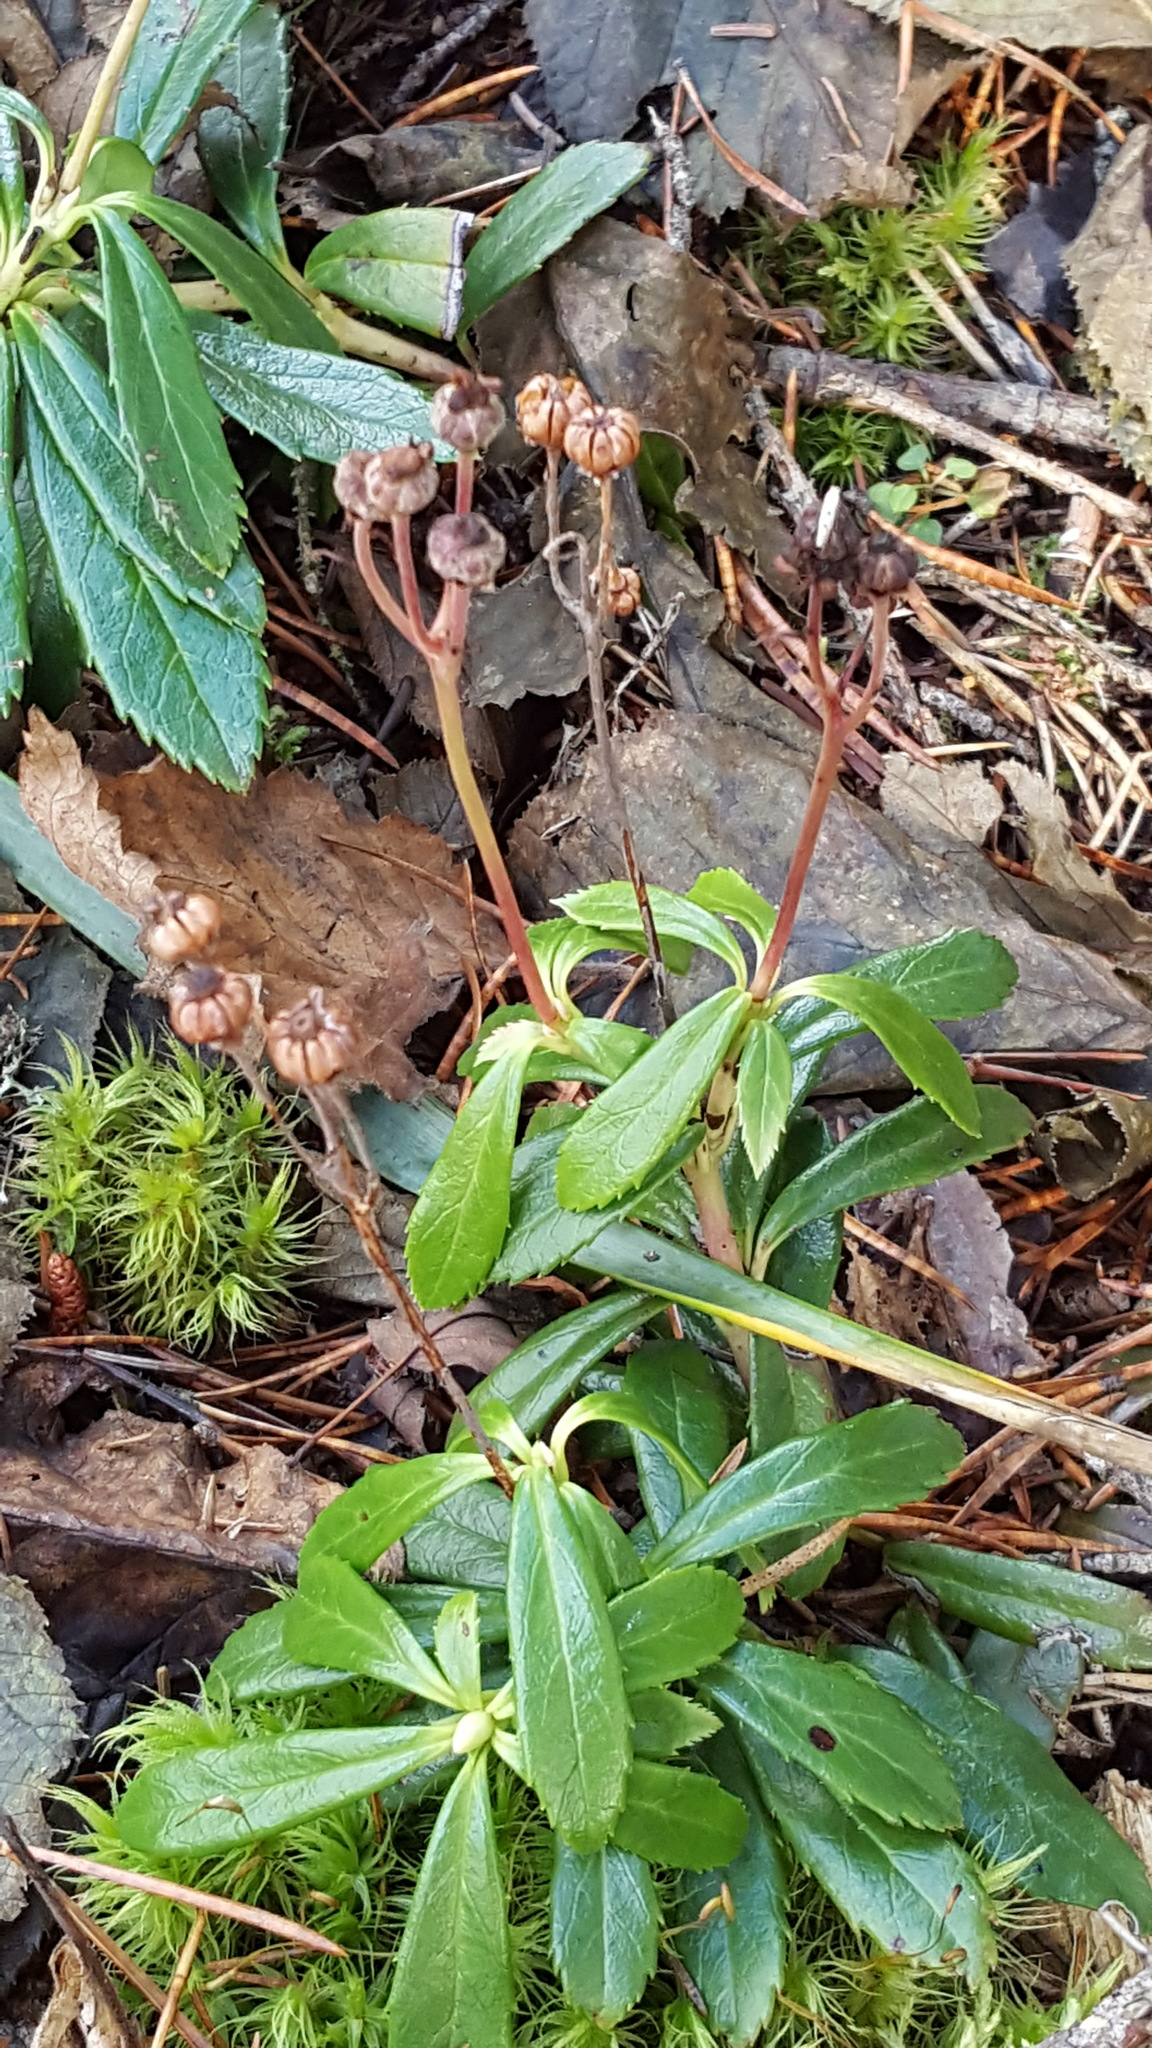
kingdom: Plantae
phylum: Tracheophyta
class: Magnoliopsida
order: Ericales
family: Ericaceae
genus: Chimaphila
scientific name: Chimaphila umbellata
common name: Pipsissewa
